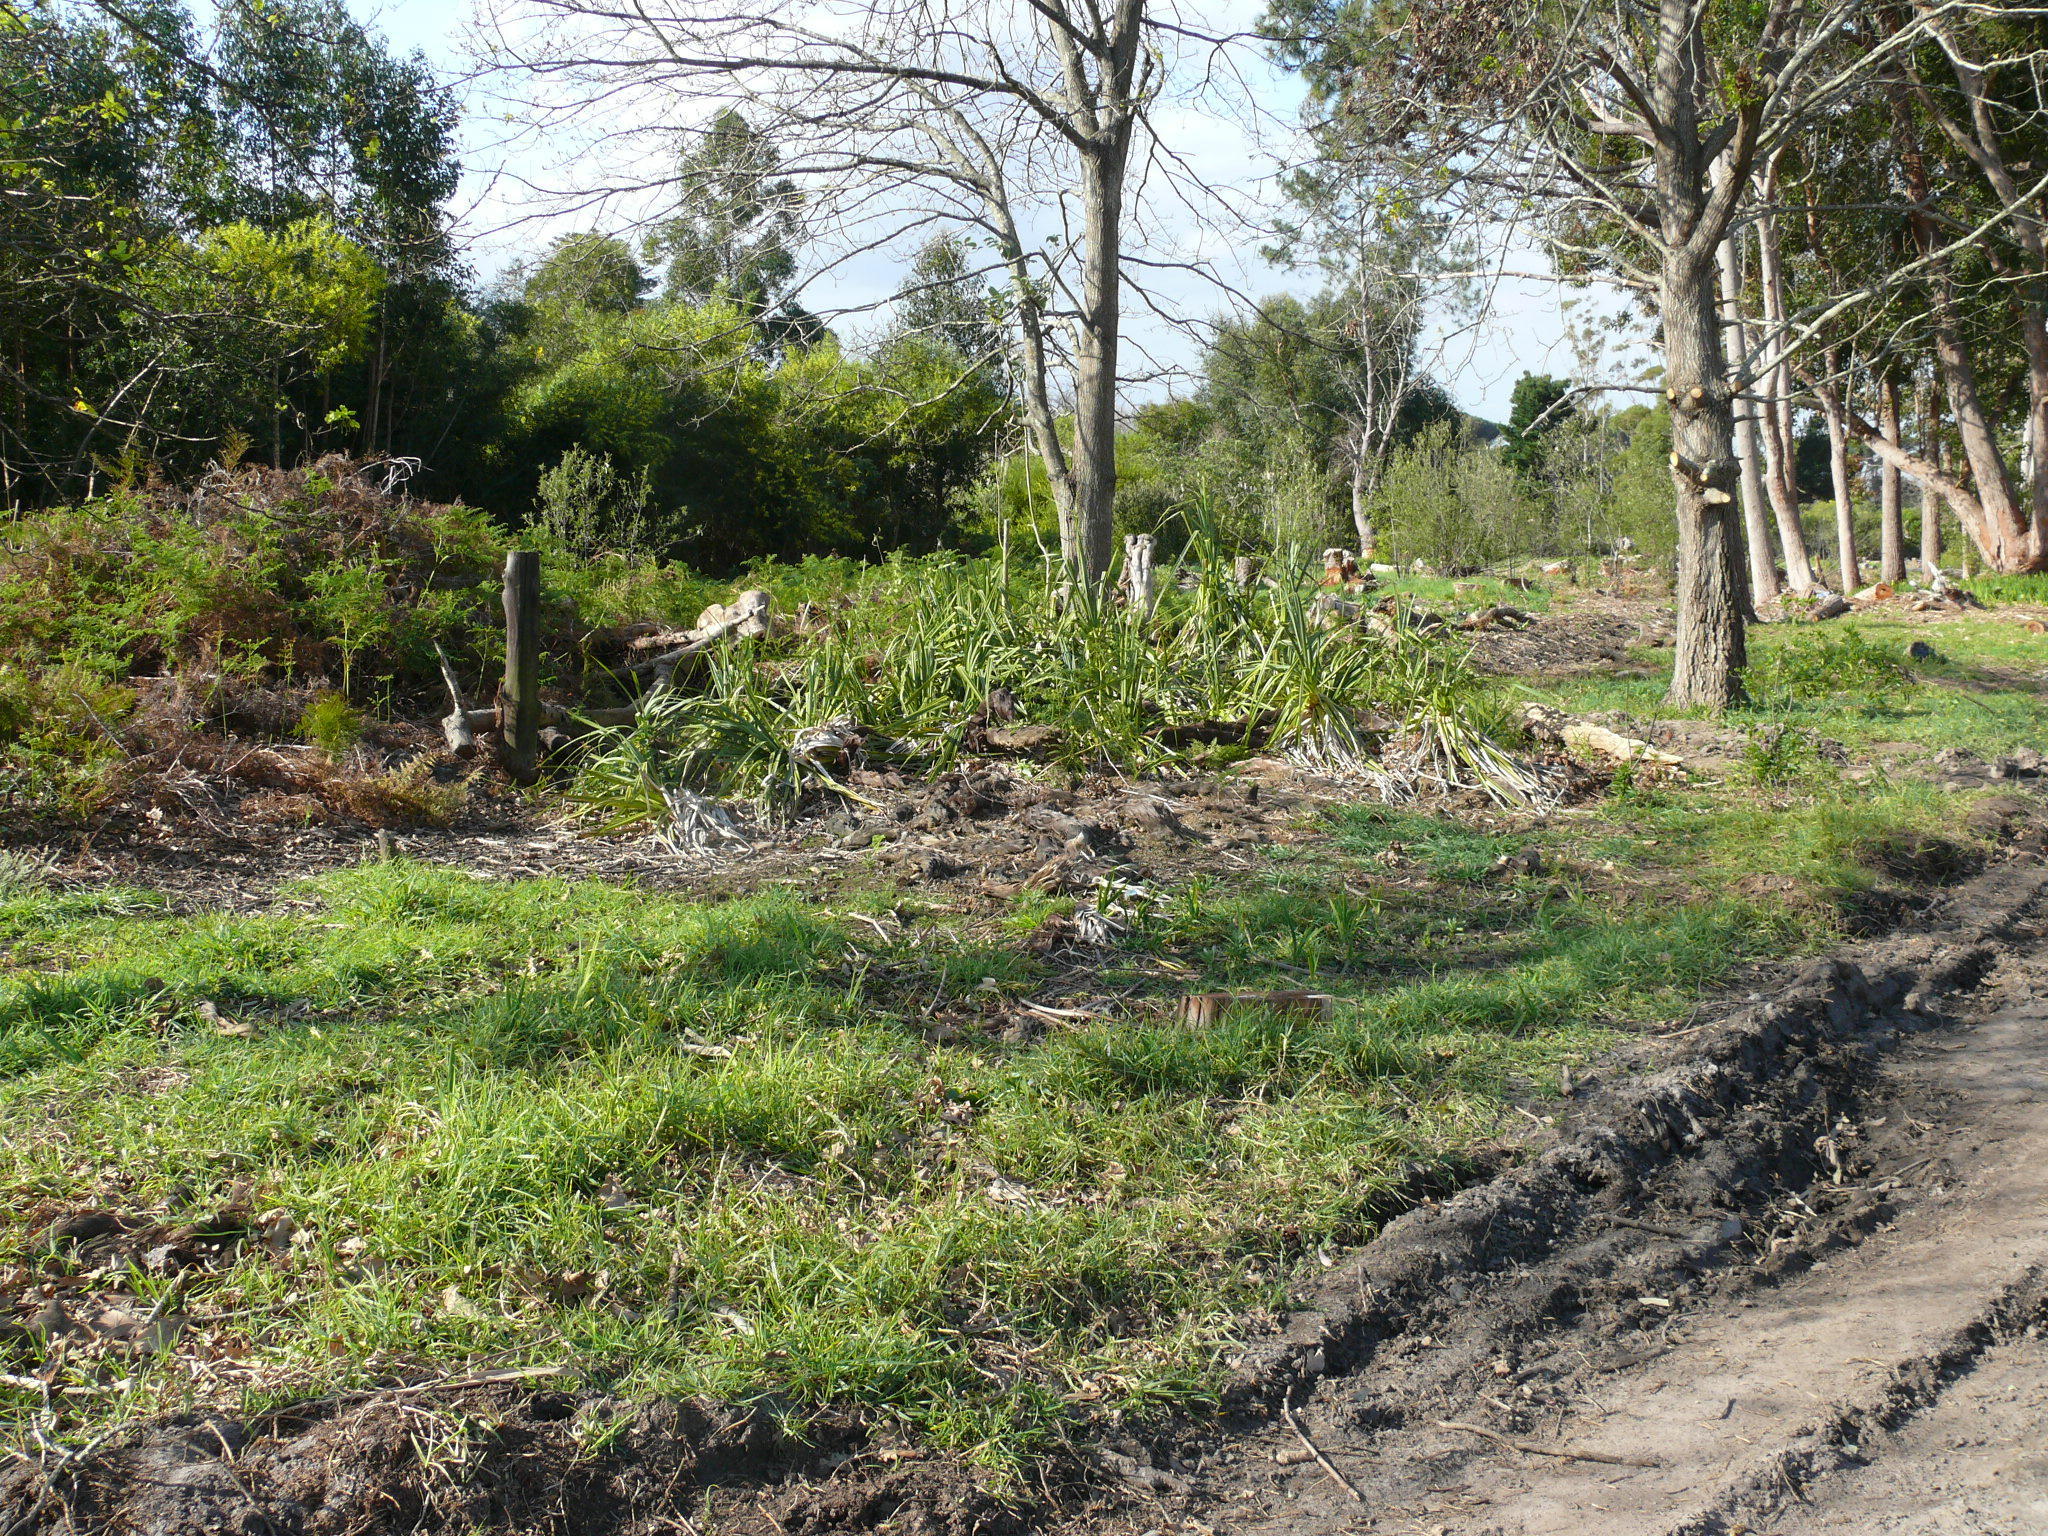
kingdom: Plantae
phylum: Tracheophyta
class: Liliopsida
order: Poales
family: Thurniaceae
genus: Prionium
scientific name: Prionium serratum
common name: Palmiet
